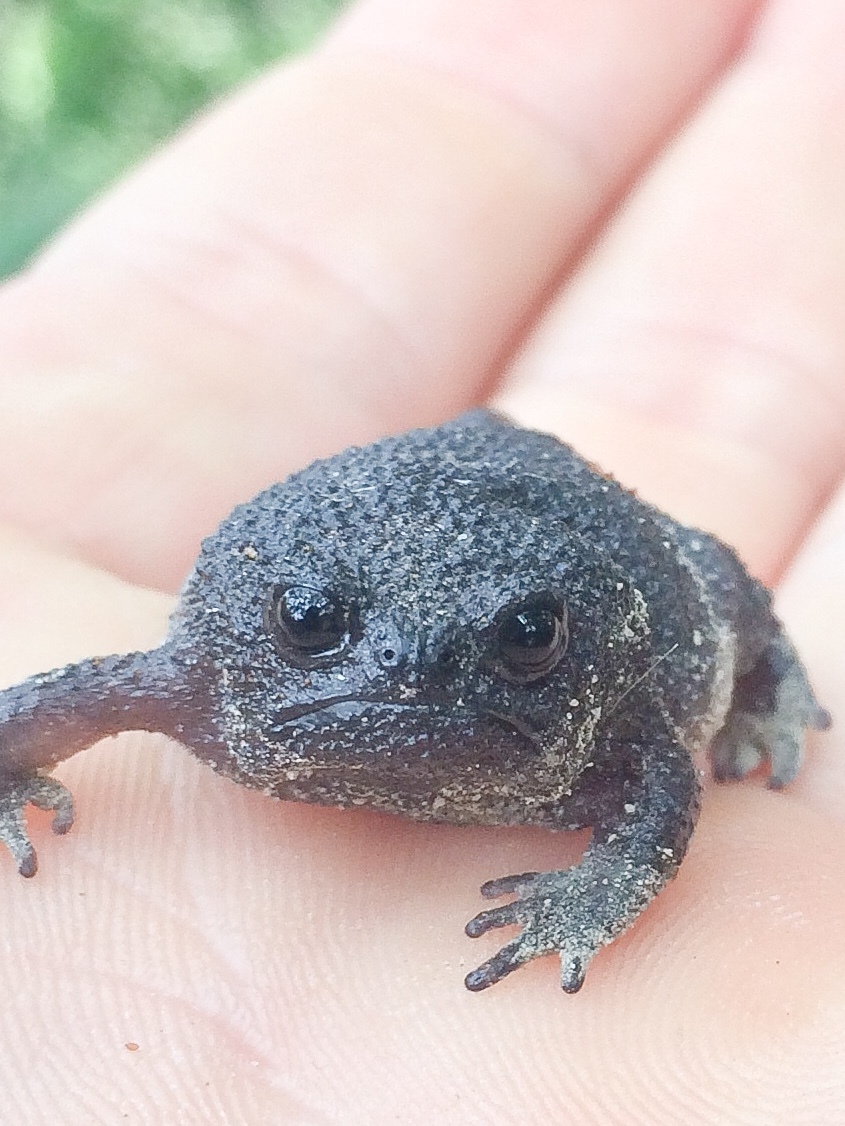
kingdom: Animalia
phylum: Chordata
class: Amphibia
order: Anura
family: Brevicipitidae
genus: Breviceps
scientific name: Breviceps fuscus
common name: Black rain frog
